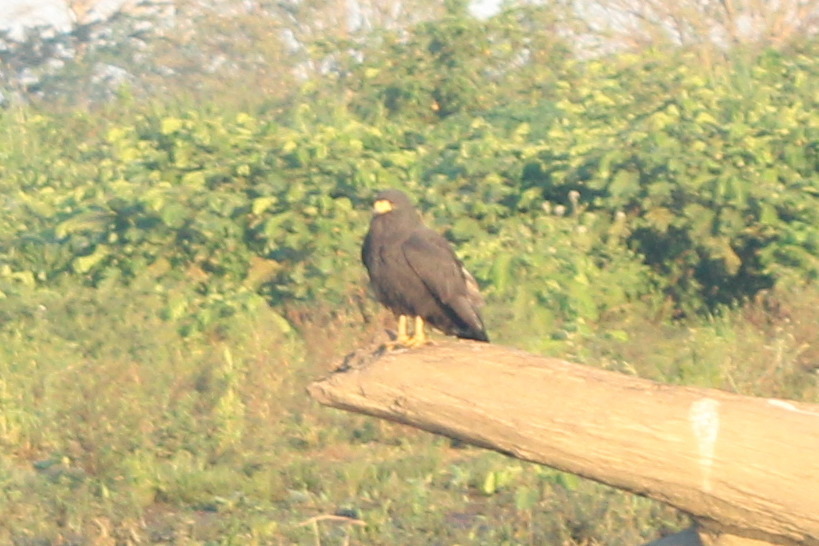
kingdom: Animalia
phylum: Chordata
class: Aves
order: Accipitriformes
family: Accipitridae
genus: Buteogallus
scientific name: Buteogallus anthracinus
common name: Common black hawk
